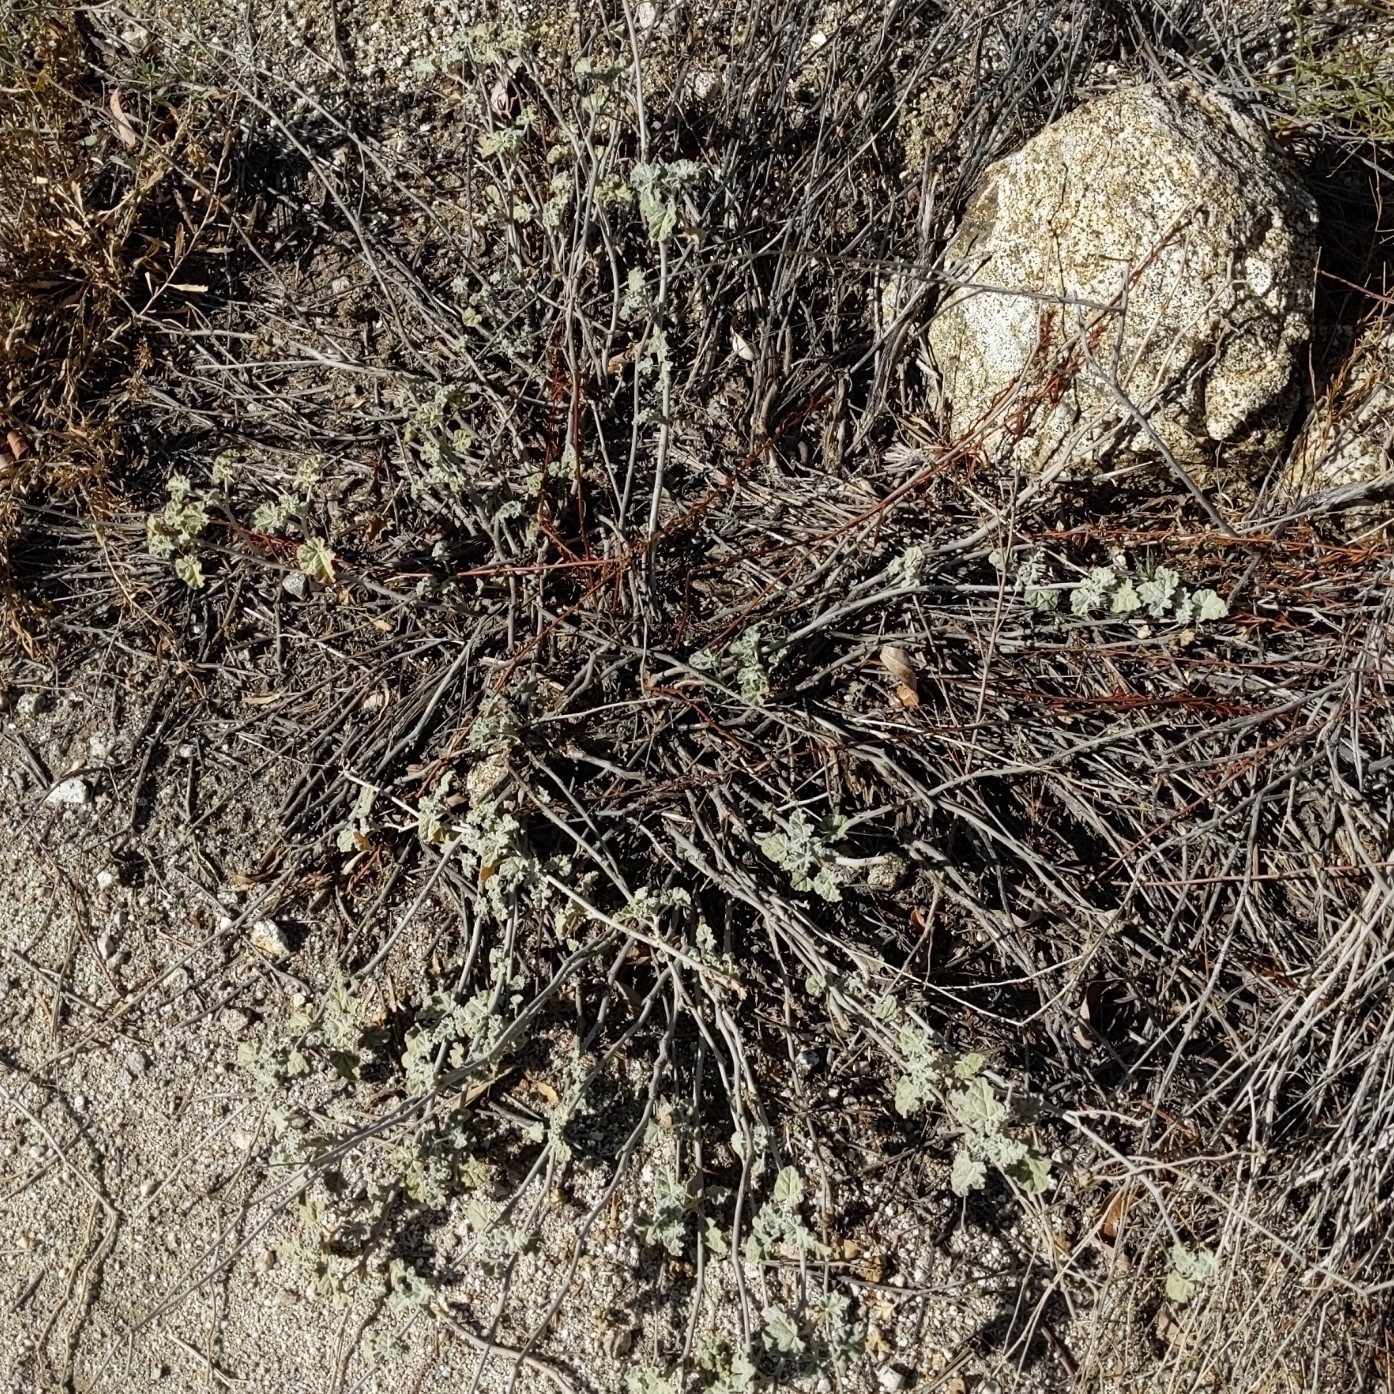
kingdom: Plantae
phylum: Tracheophyta
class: Magnoliopsida
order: Malvales
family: Malvaceae
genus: Sphaeralcea
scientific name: Sphaeralcea ambigua
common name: Apricot globe-mallow
